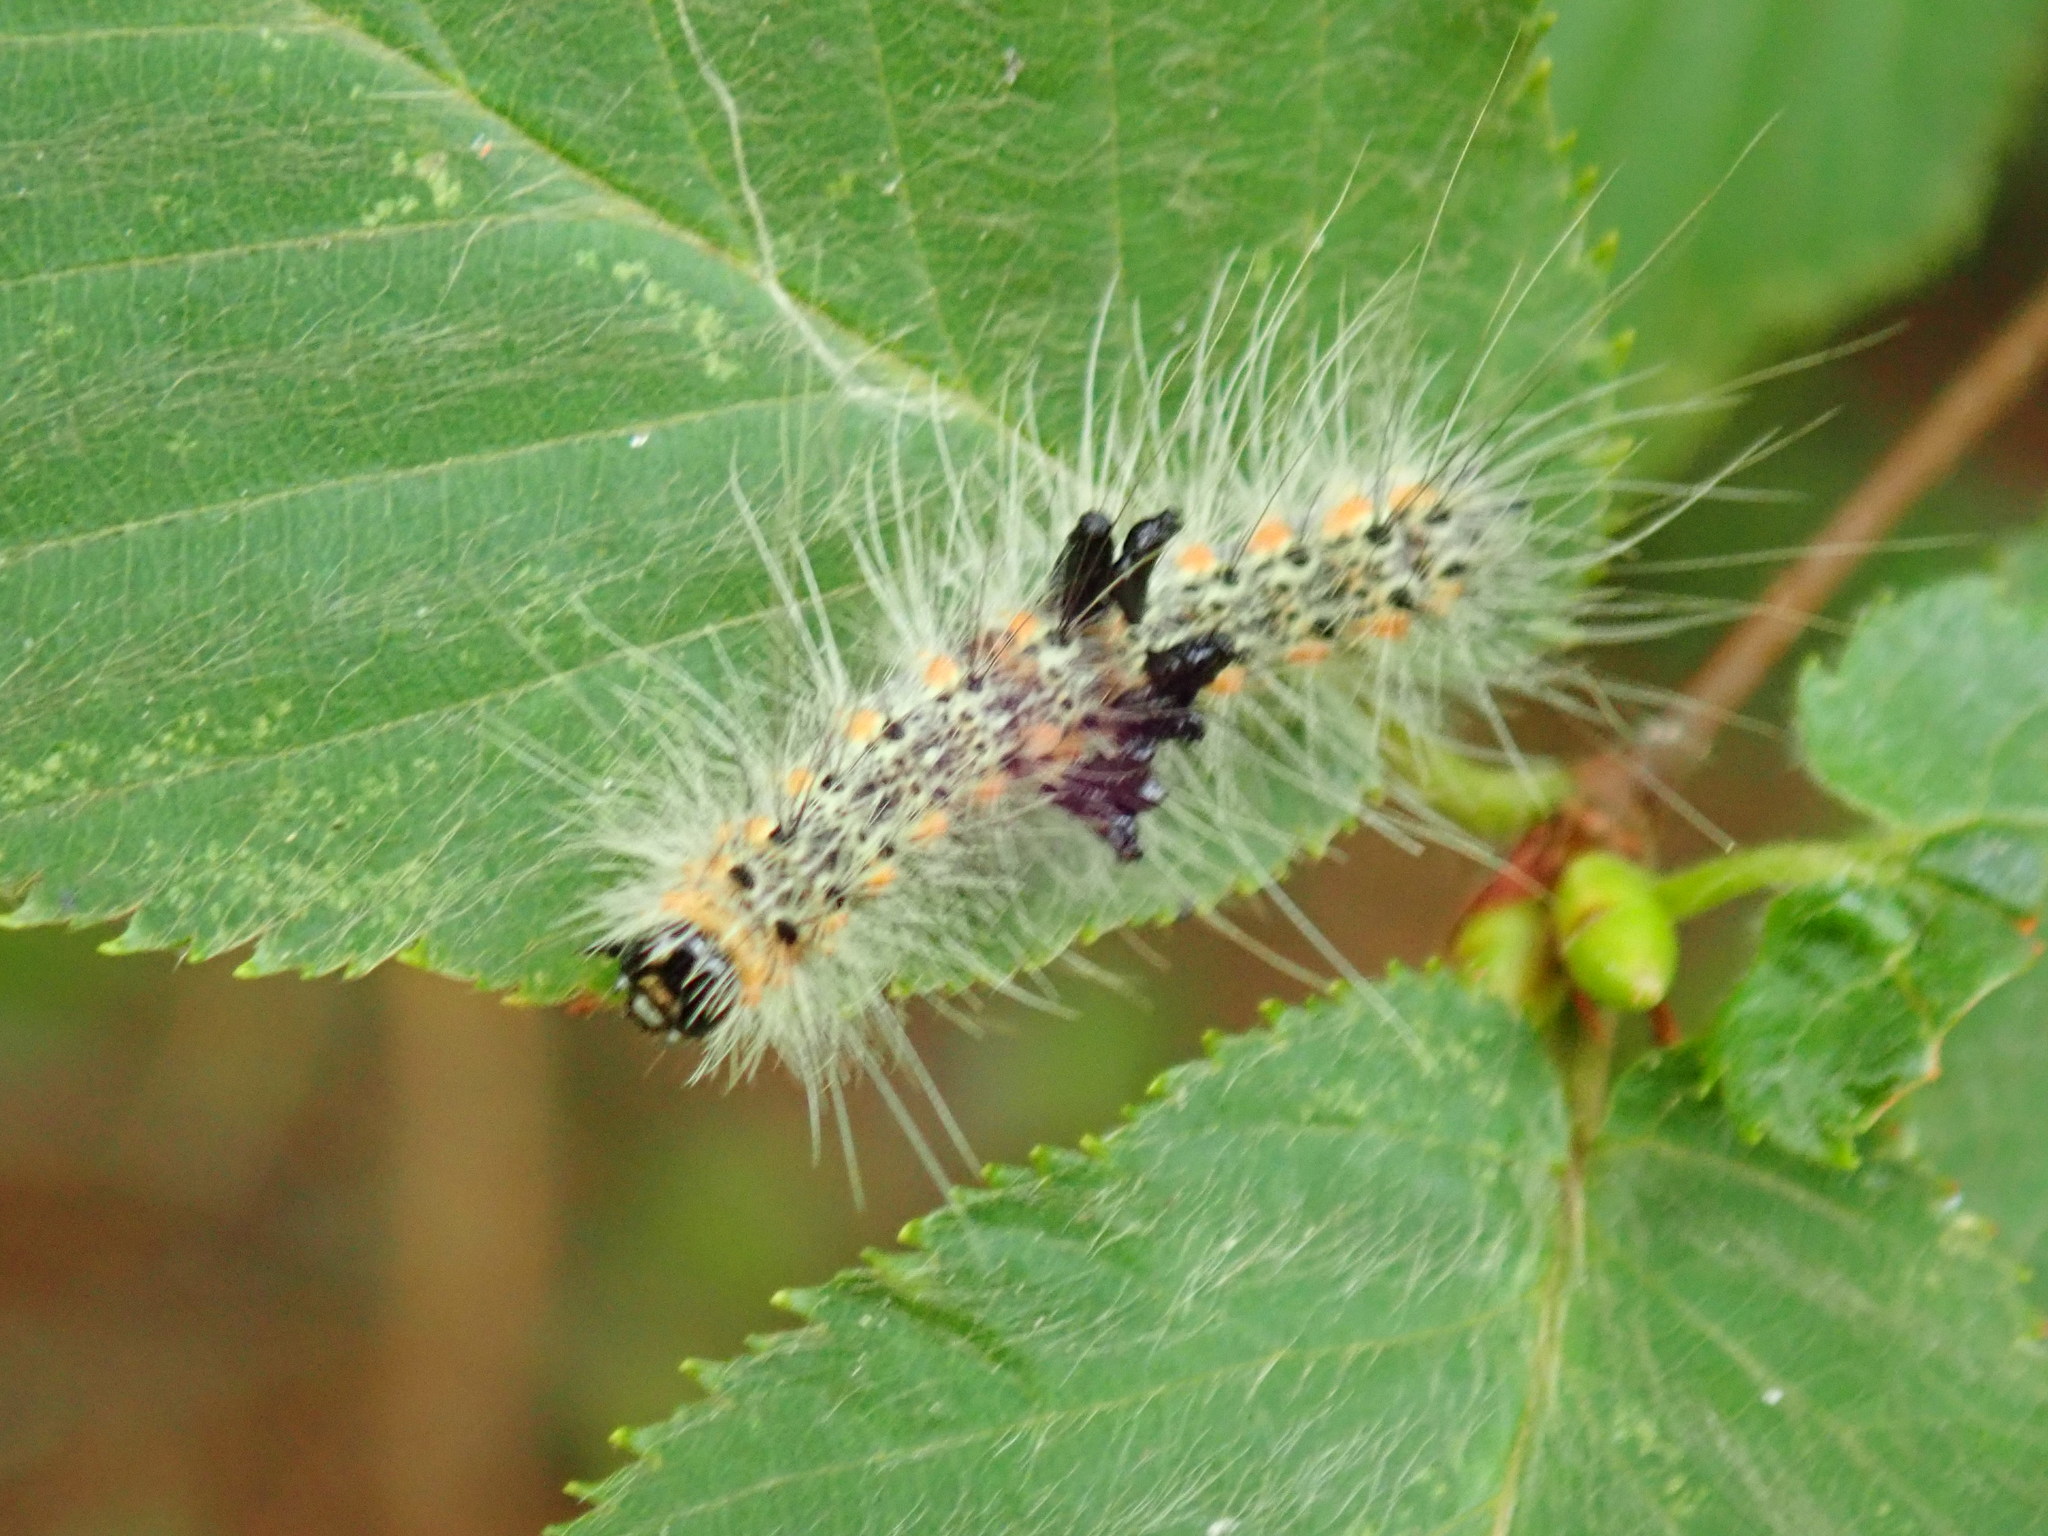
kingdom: Animalia
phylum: Arthropoda
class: Insecta
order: Lepidoptera
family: Erebidae
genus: Hyphantria
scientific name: Hyphantria cunea
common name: American white moth
